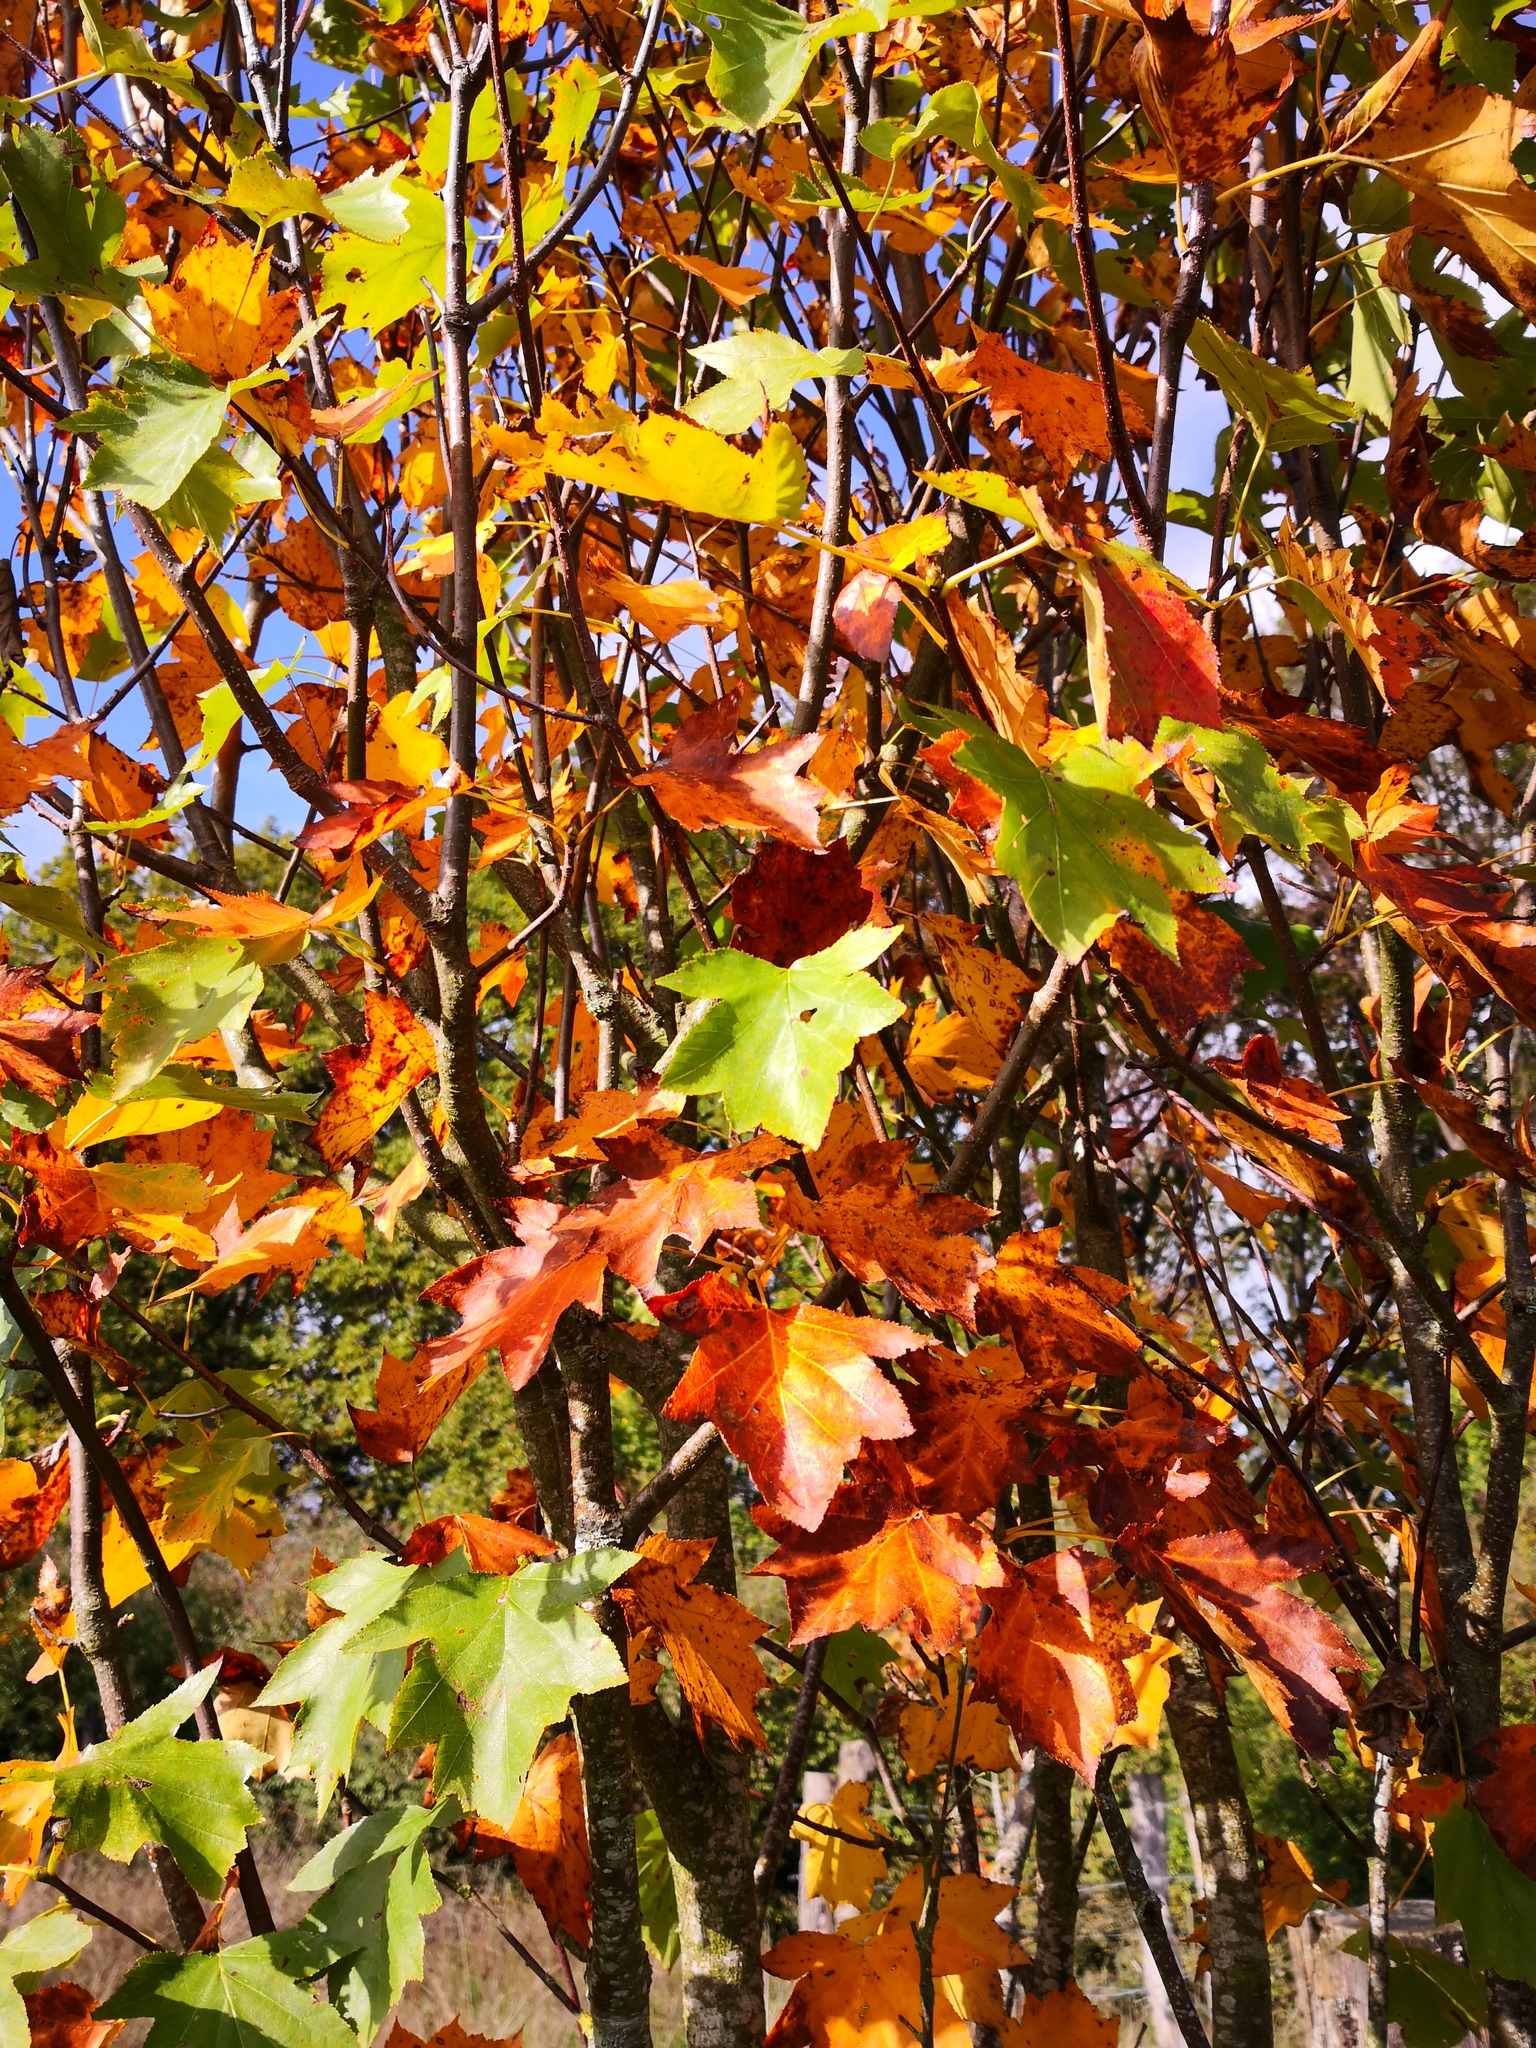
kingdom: Plantae
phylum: Tracheophyta
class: Magnoliopsida
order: Rosales
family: Rosaceae
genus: Torminalis
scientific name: Torminalis glaberrima
